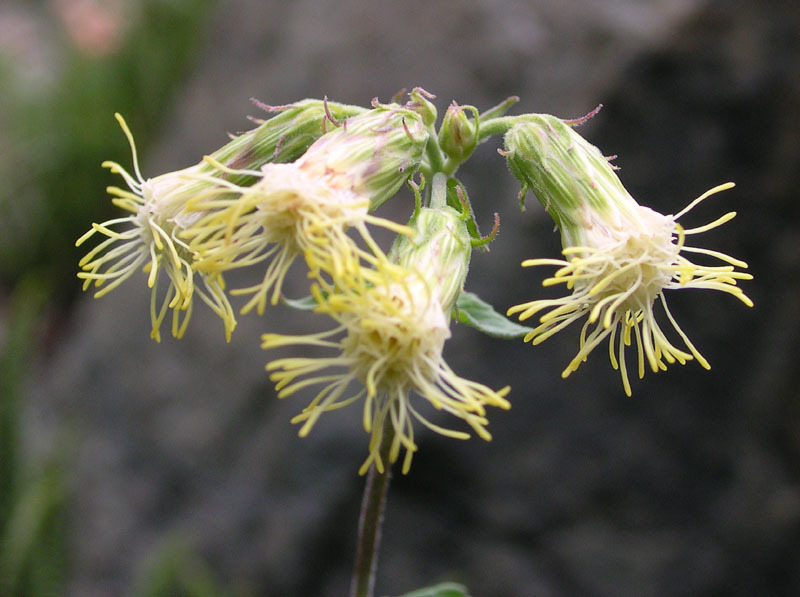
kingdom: Plantae
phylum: Tracheophyta
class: Magnoliopsida
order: Asterales
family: Asteraceae
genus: Brickellia
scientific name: Brickellia grandiflora
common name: Large-flowered brickellia
